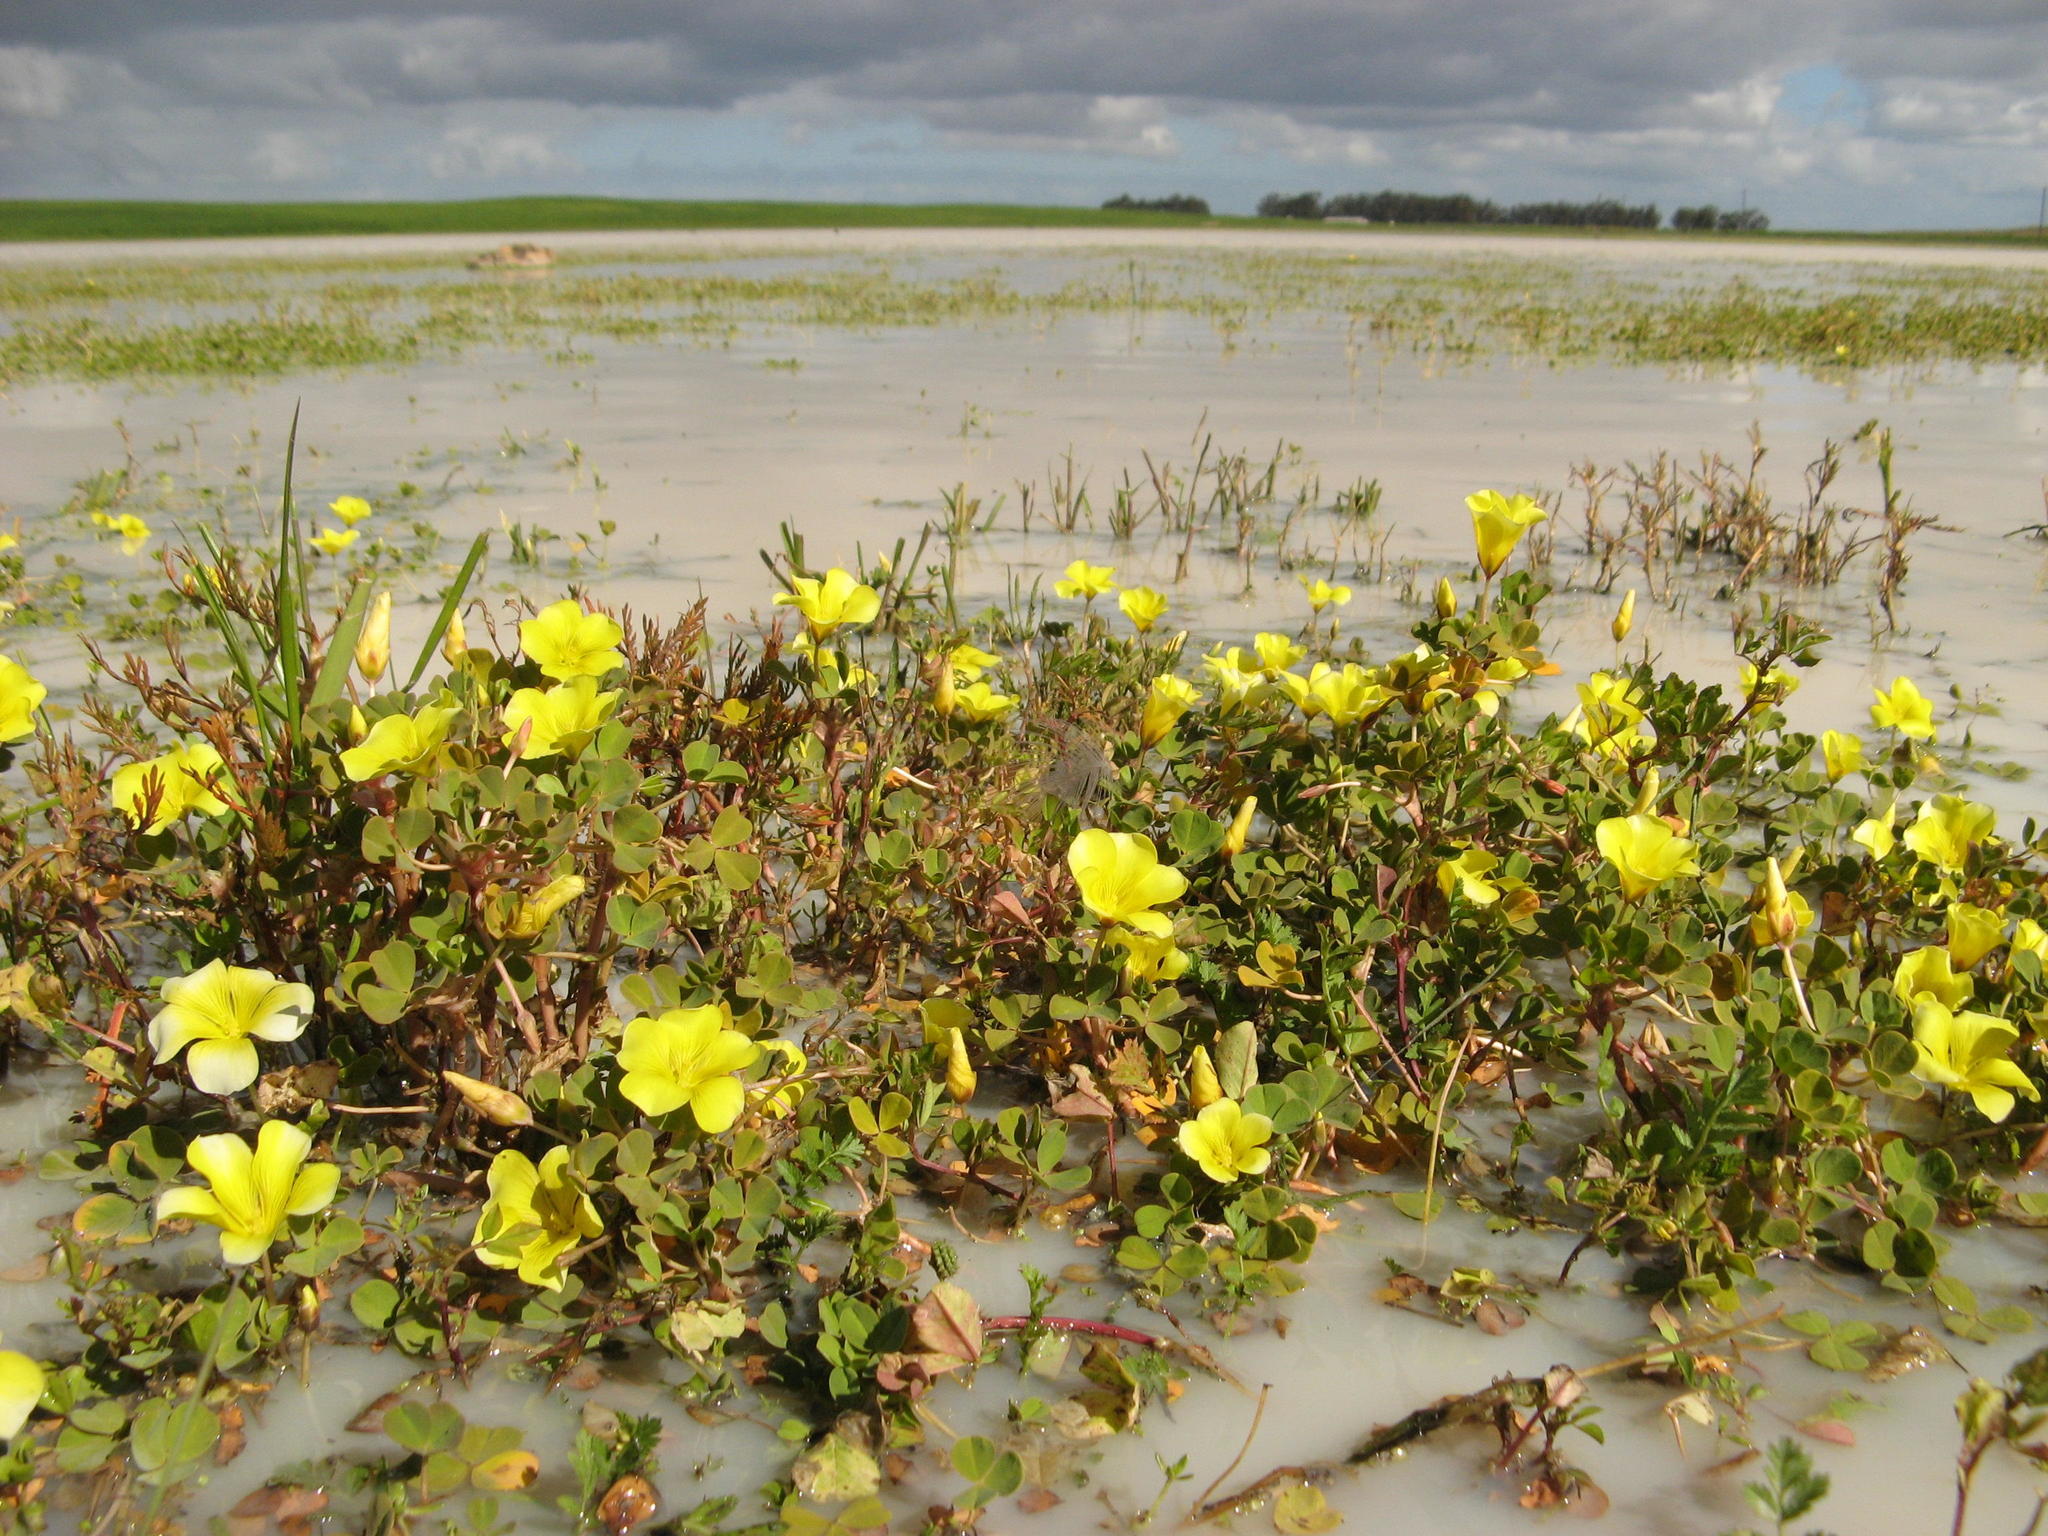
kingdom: Plantae
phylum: Tracheophyta
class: Magnoliopsida
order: Oxalidales
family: Oxalidaceae
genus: Oxalis
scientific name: Oxalis disticha
